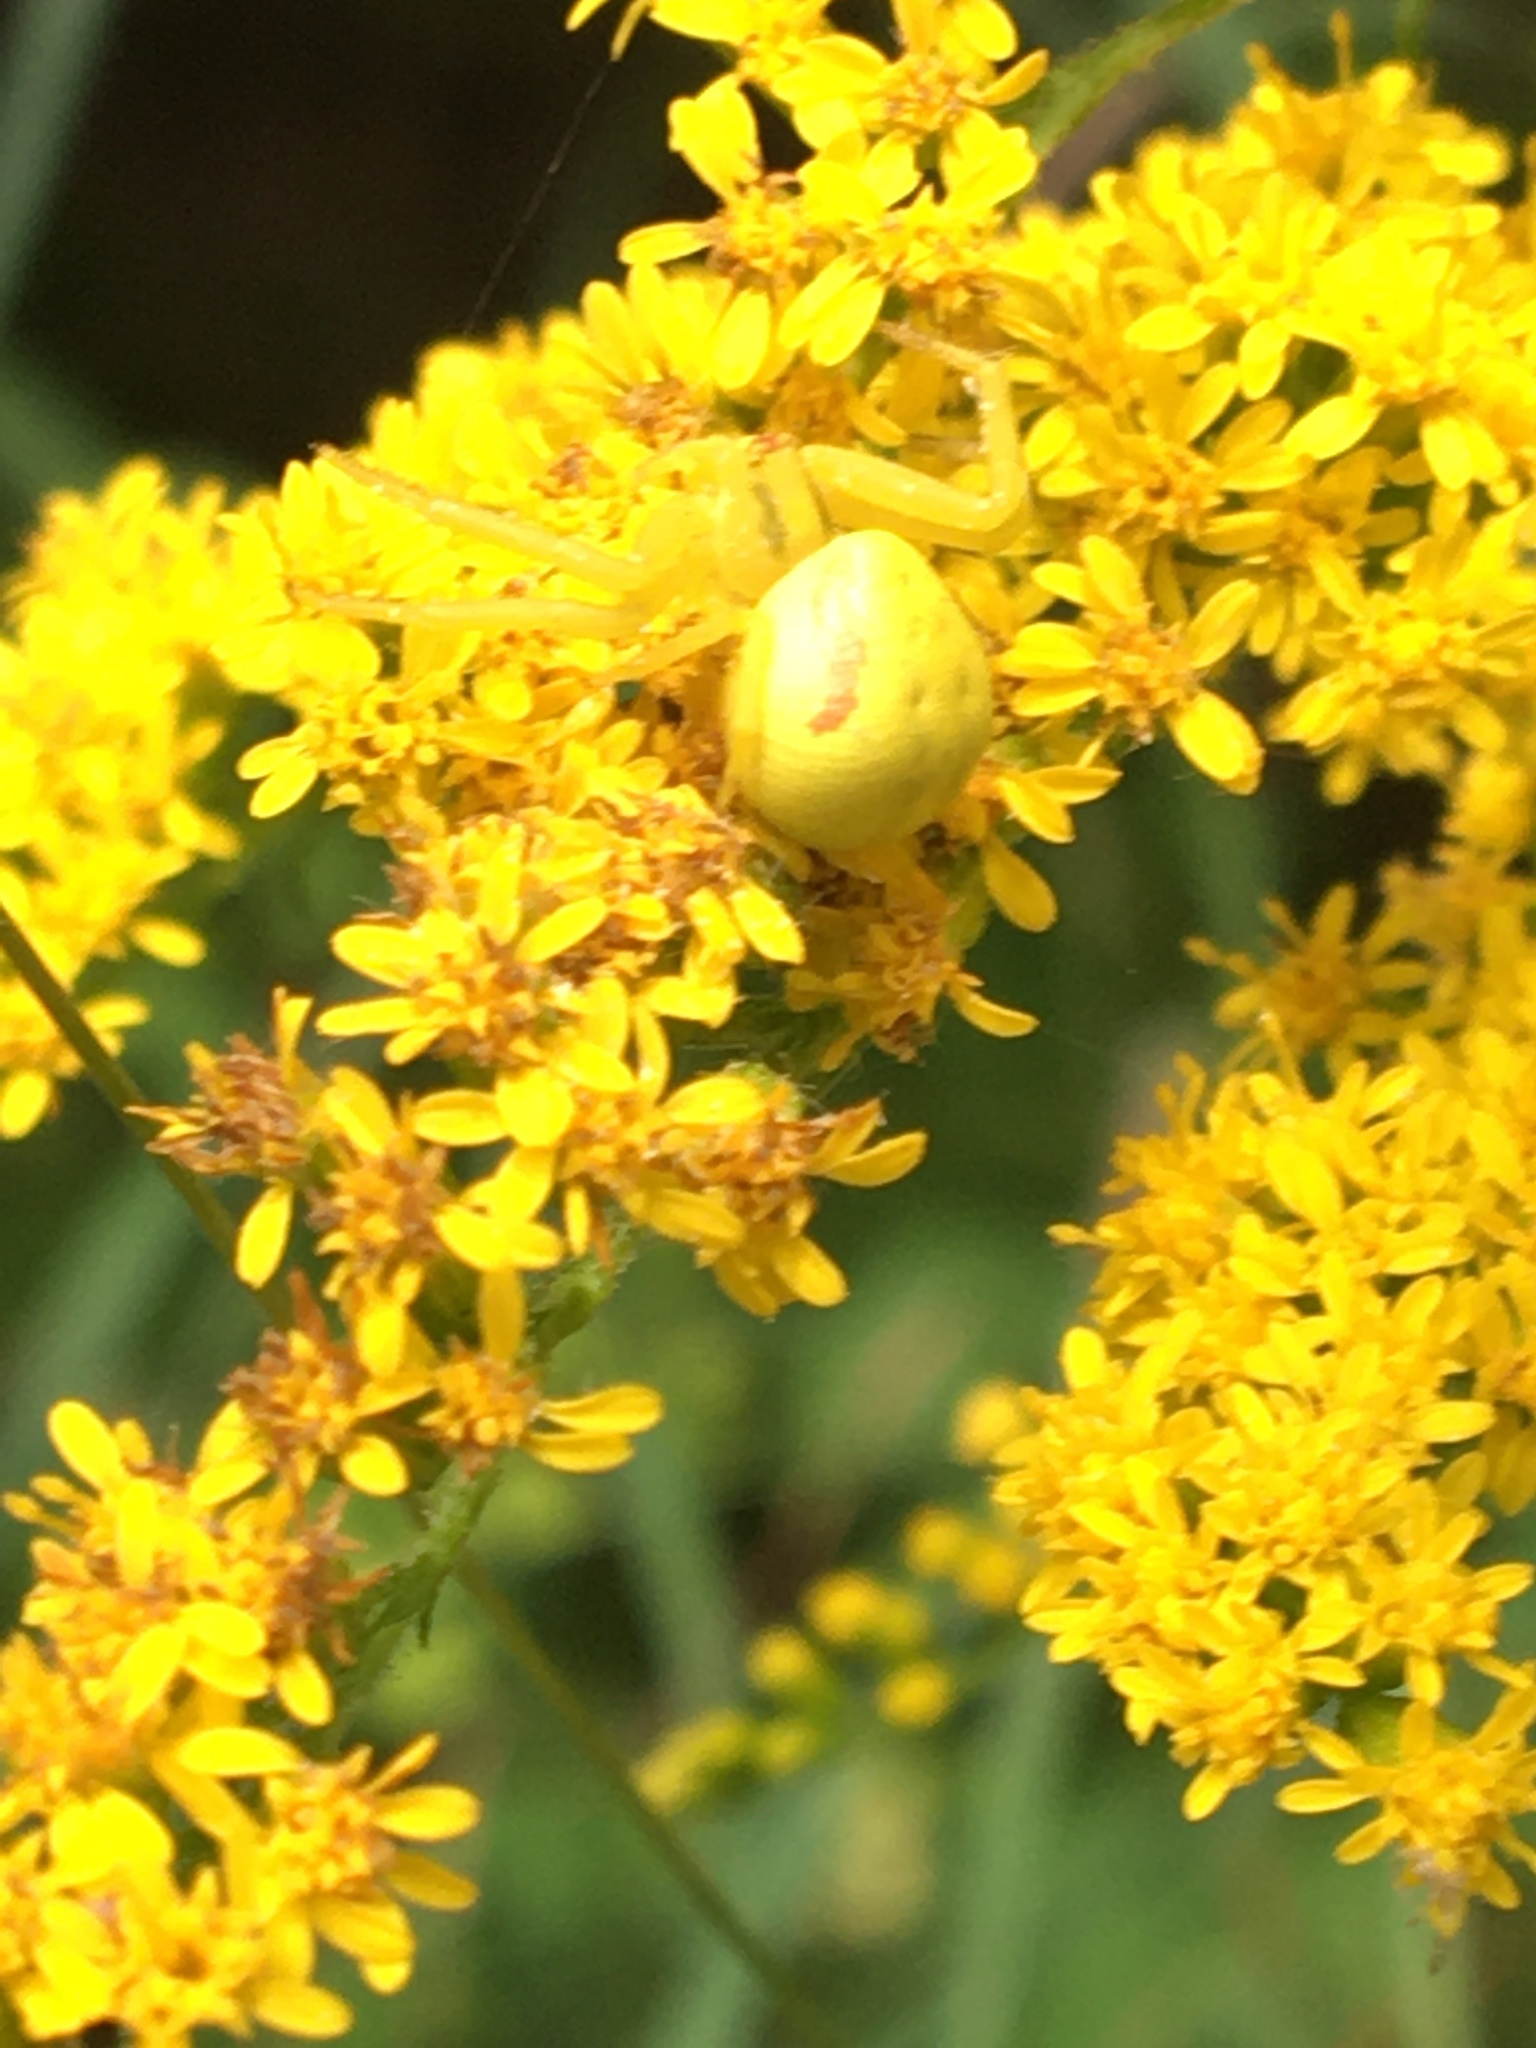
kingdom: Animalia
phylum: Arthropoda
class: Arachnida
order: Araneae
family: Thomisidae
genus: Misumena
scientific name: Misumena vatia
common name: Goldenrod crab spider
